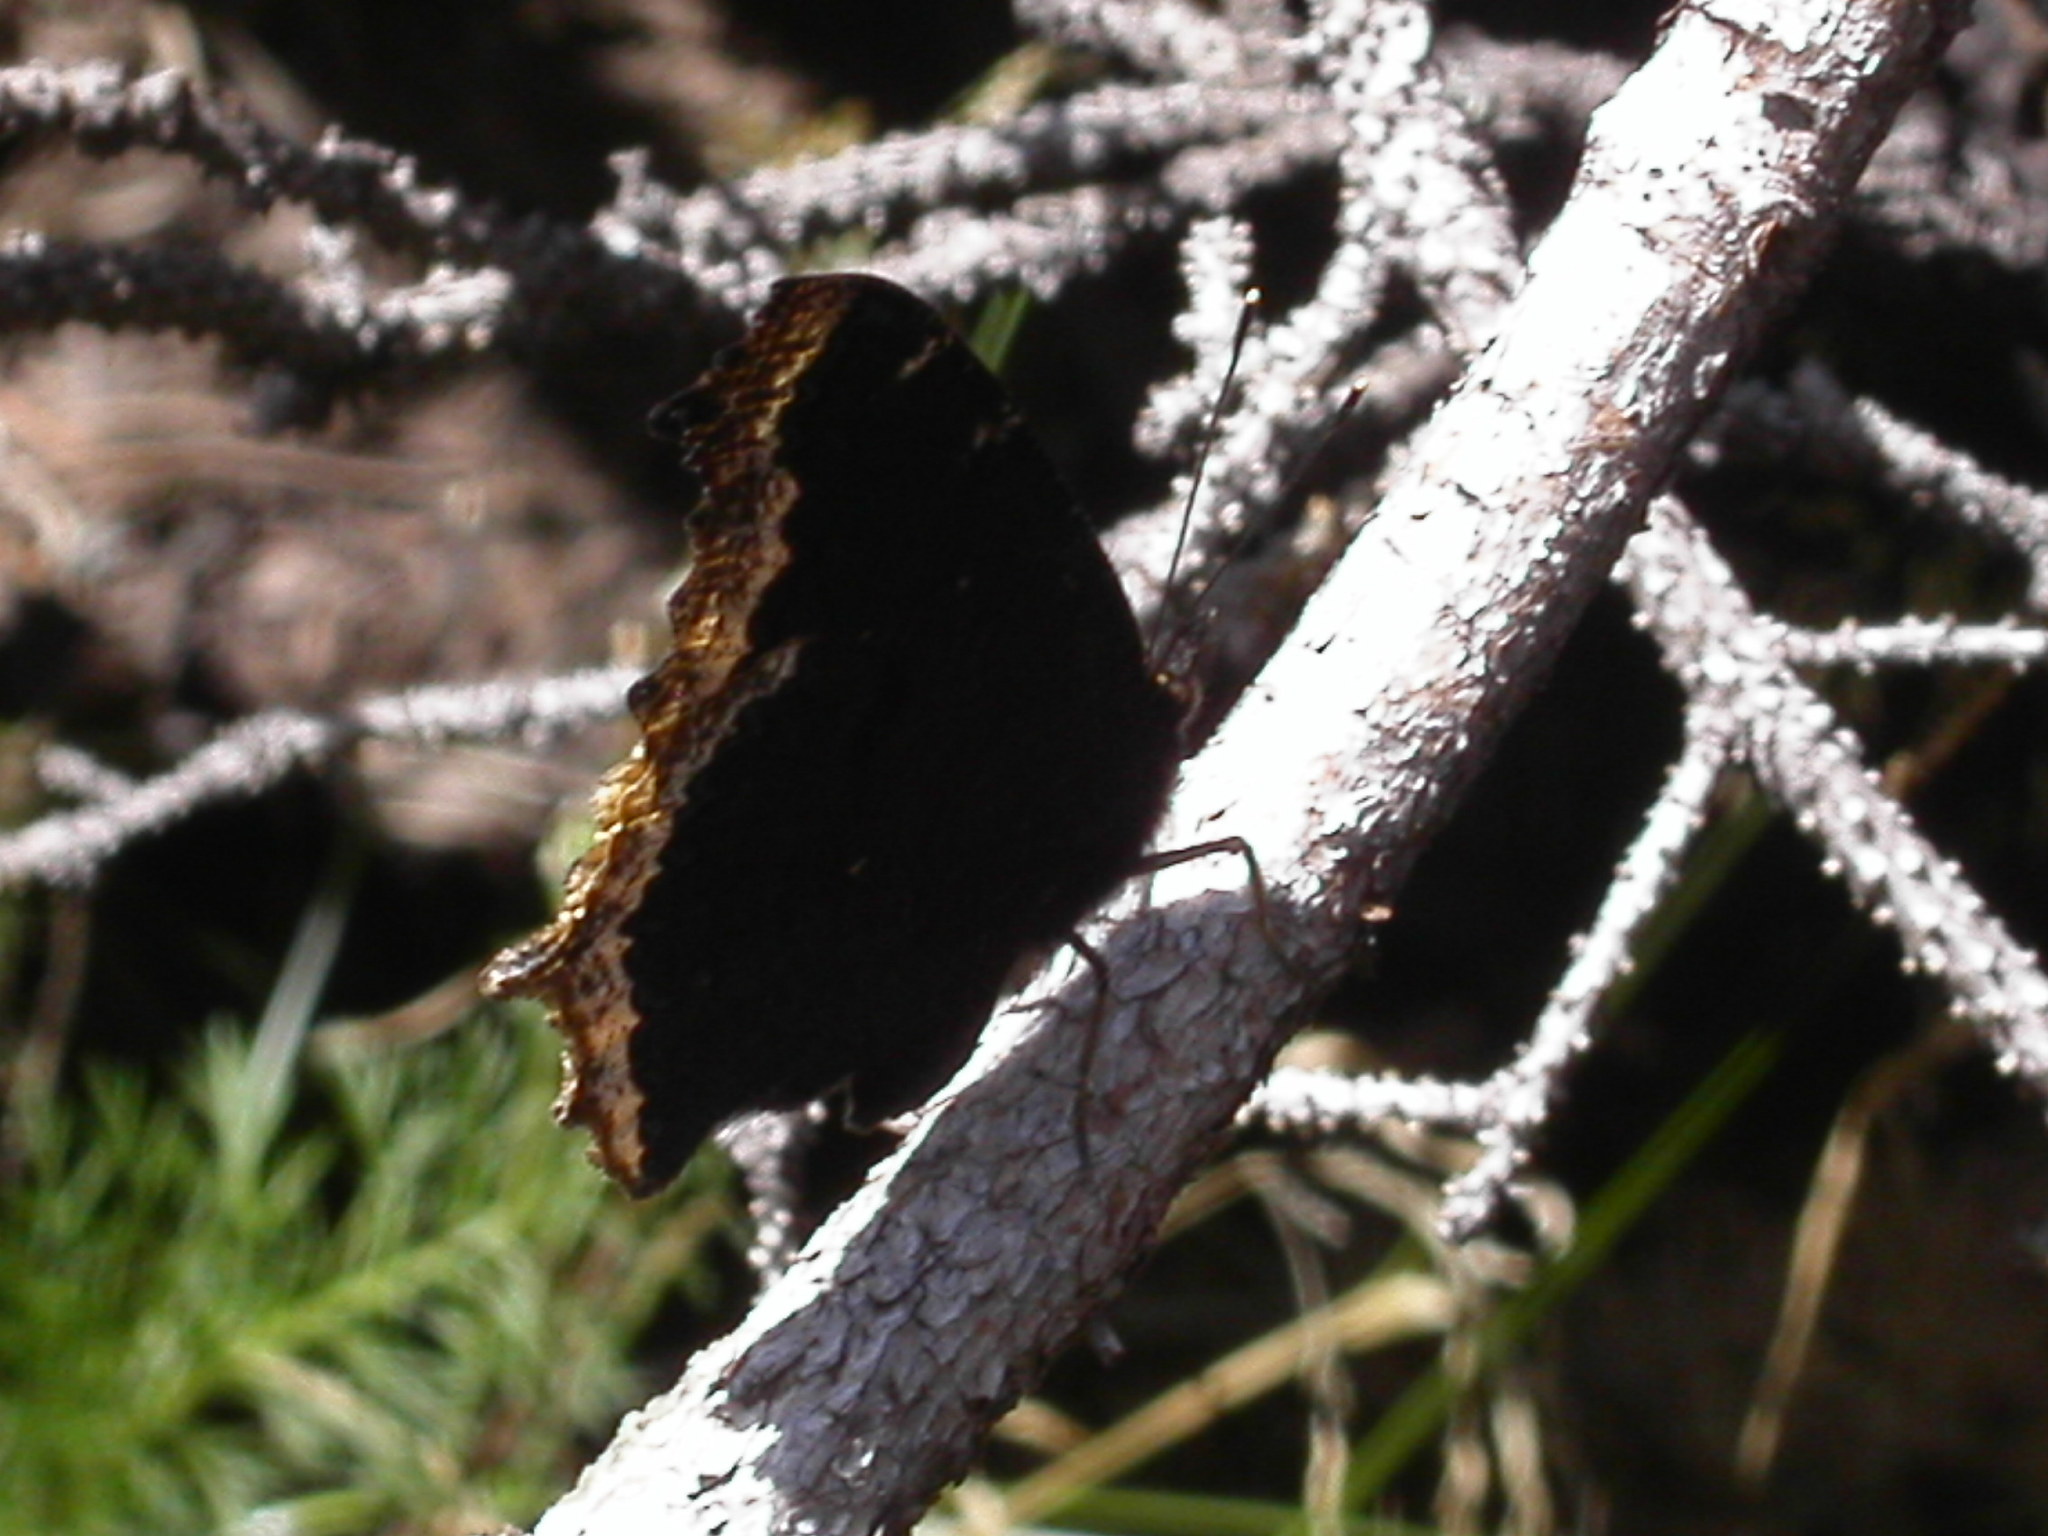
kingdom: Animalia
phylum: Arthropoda
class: Insecta
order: Lepidoptera
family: Nymphalidae
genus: Nymphalis
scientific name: Nymphalis antiopa
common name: Camberwell beauty
